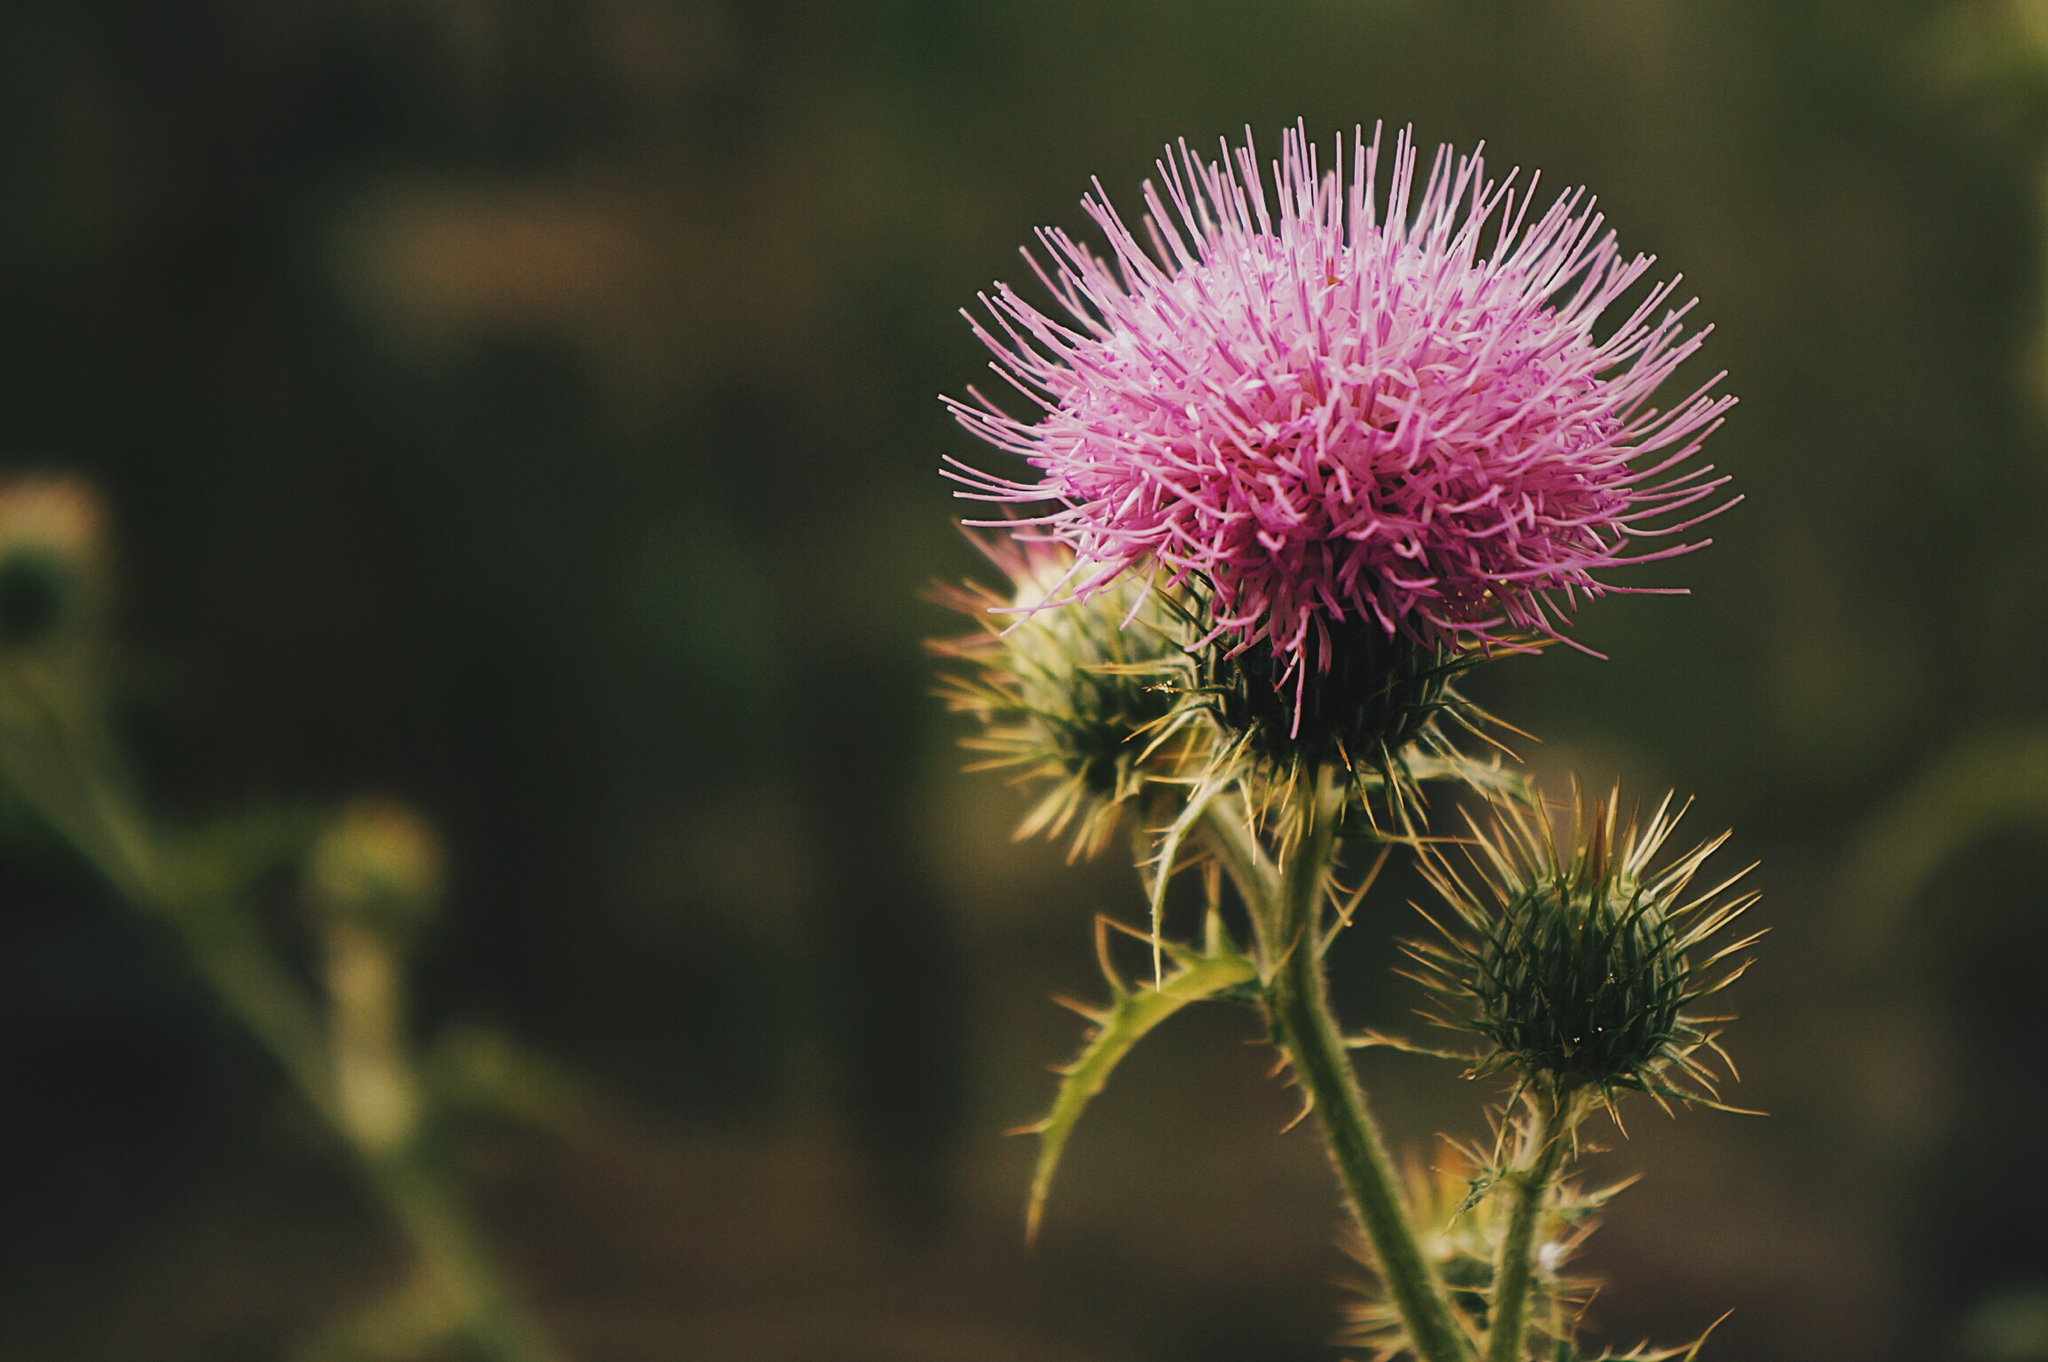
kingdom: Plantae
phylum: Tracheophyta
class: Magnoliopsida
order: Asterales
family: Asteraceae
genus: Cirsium
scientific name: Cirsium texanum
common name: Texas purple thistle
